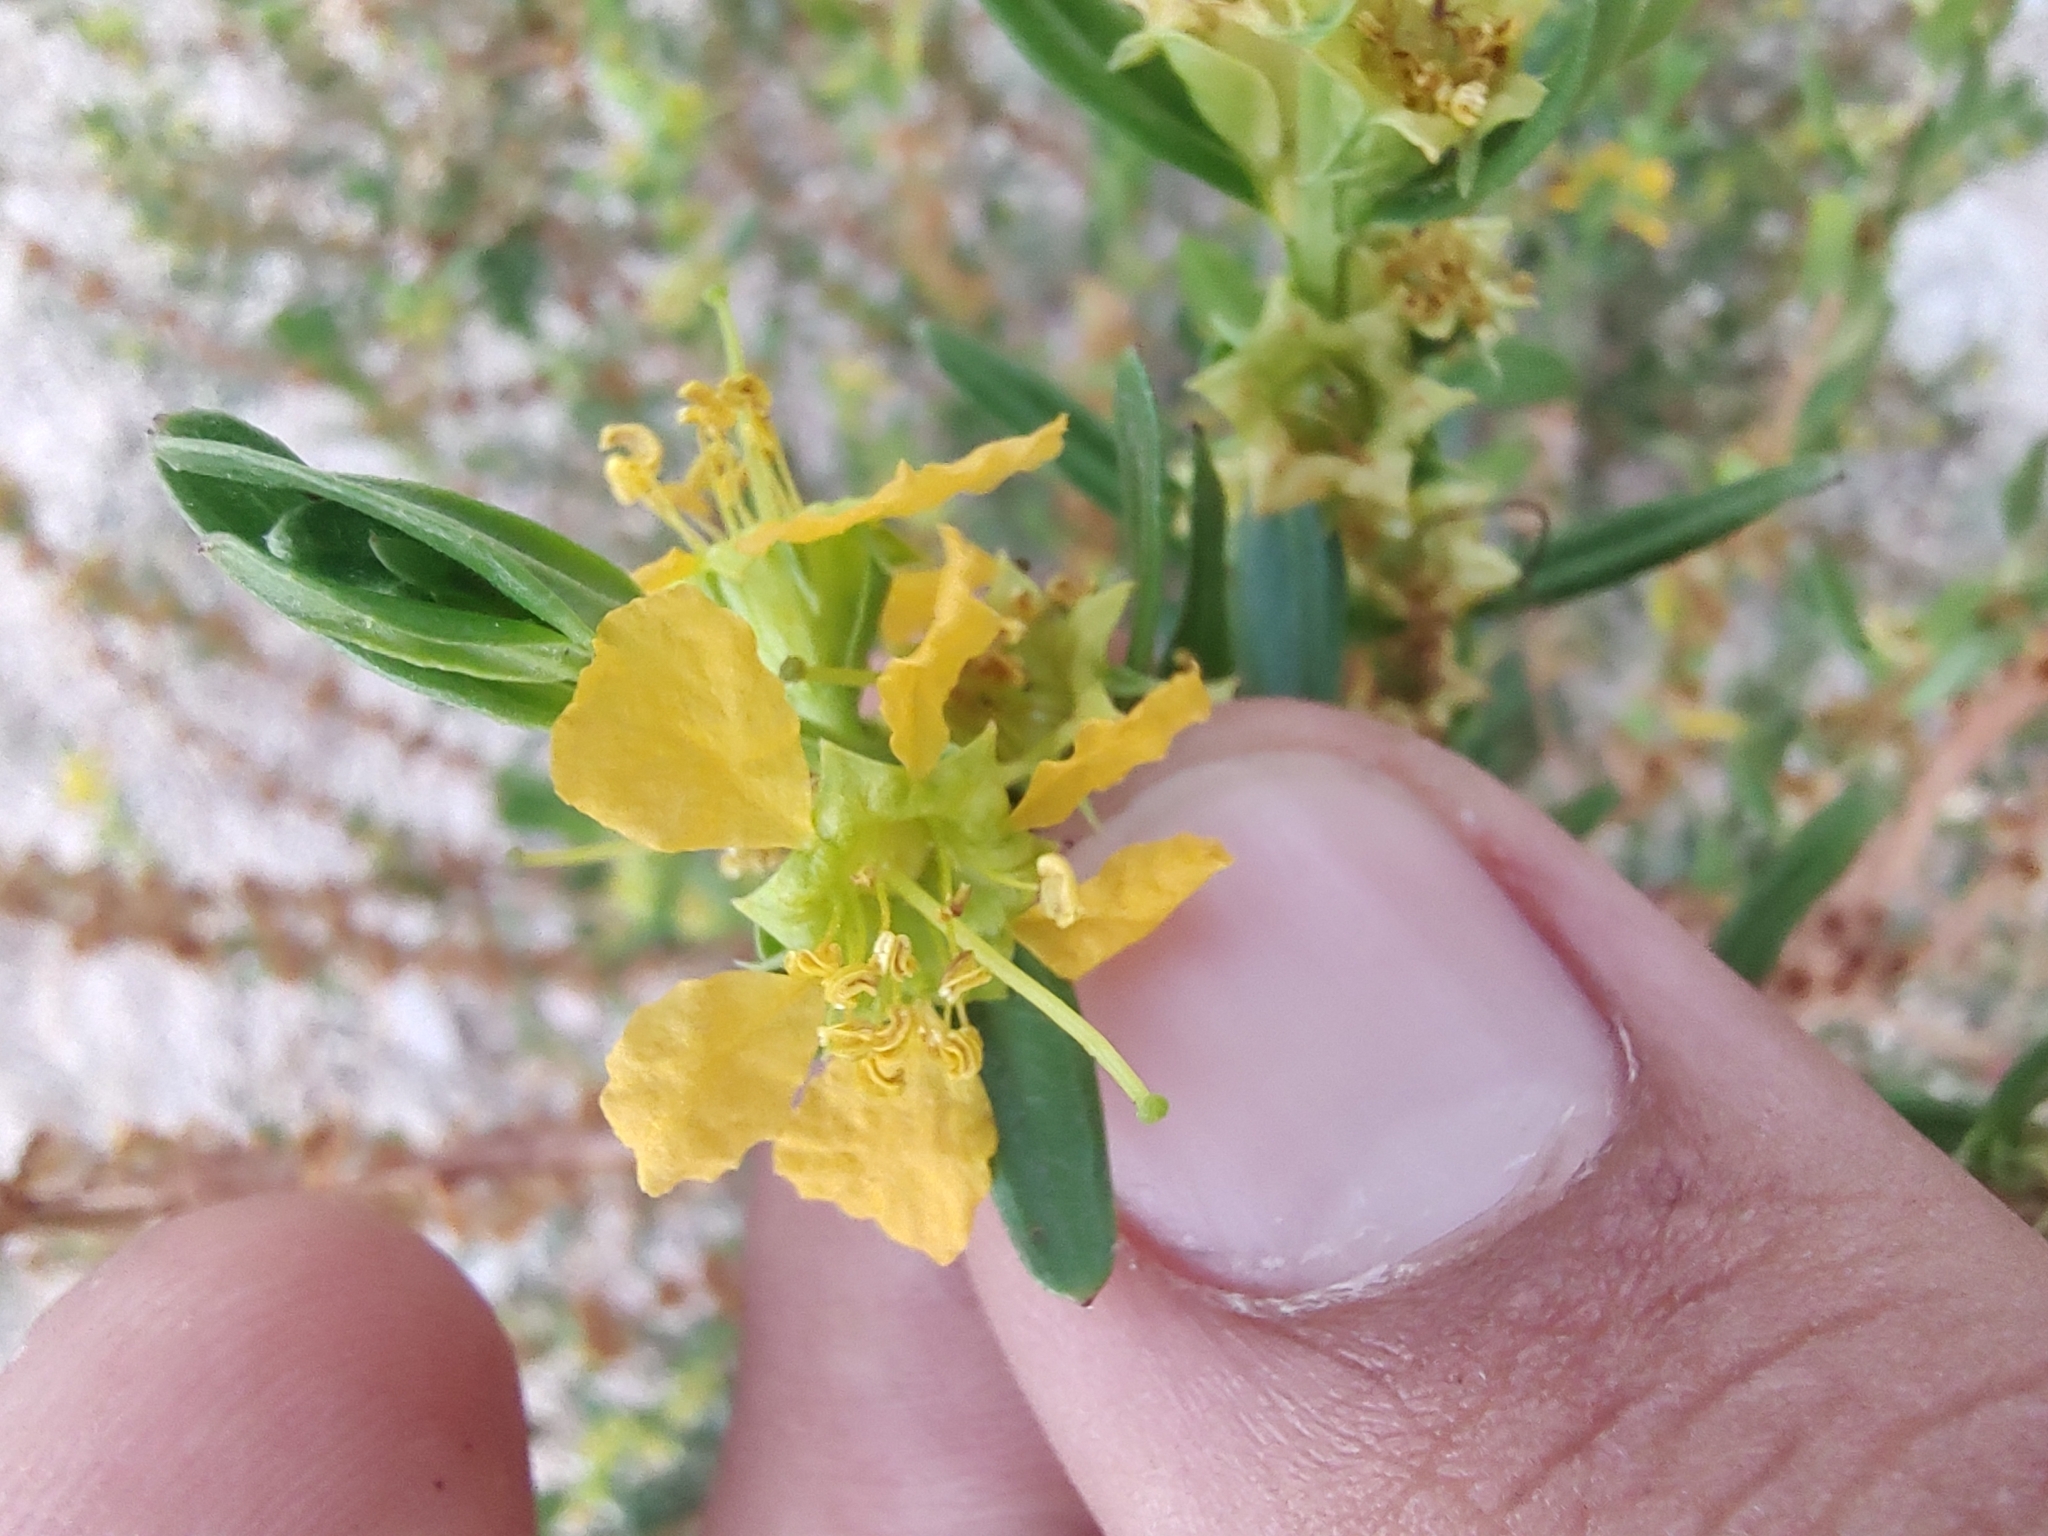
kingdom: Plantae
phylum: Tracheophyta
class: Magnoliopsida
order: Myrtales
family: Lythraceae
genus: Heimia
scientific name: Heimia salicifolia
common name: Willow-leaf heimia
